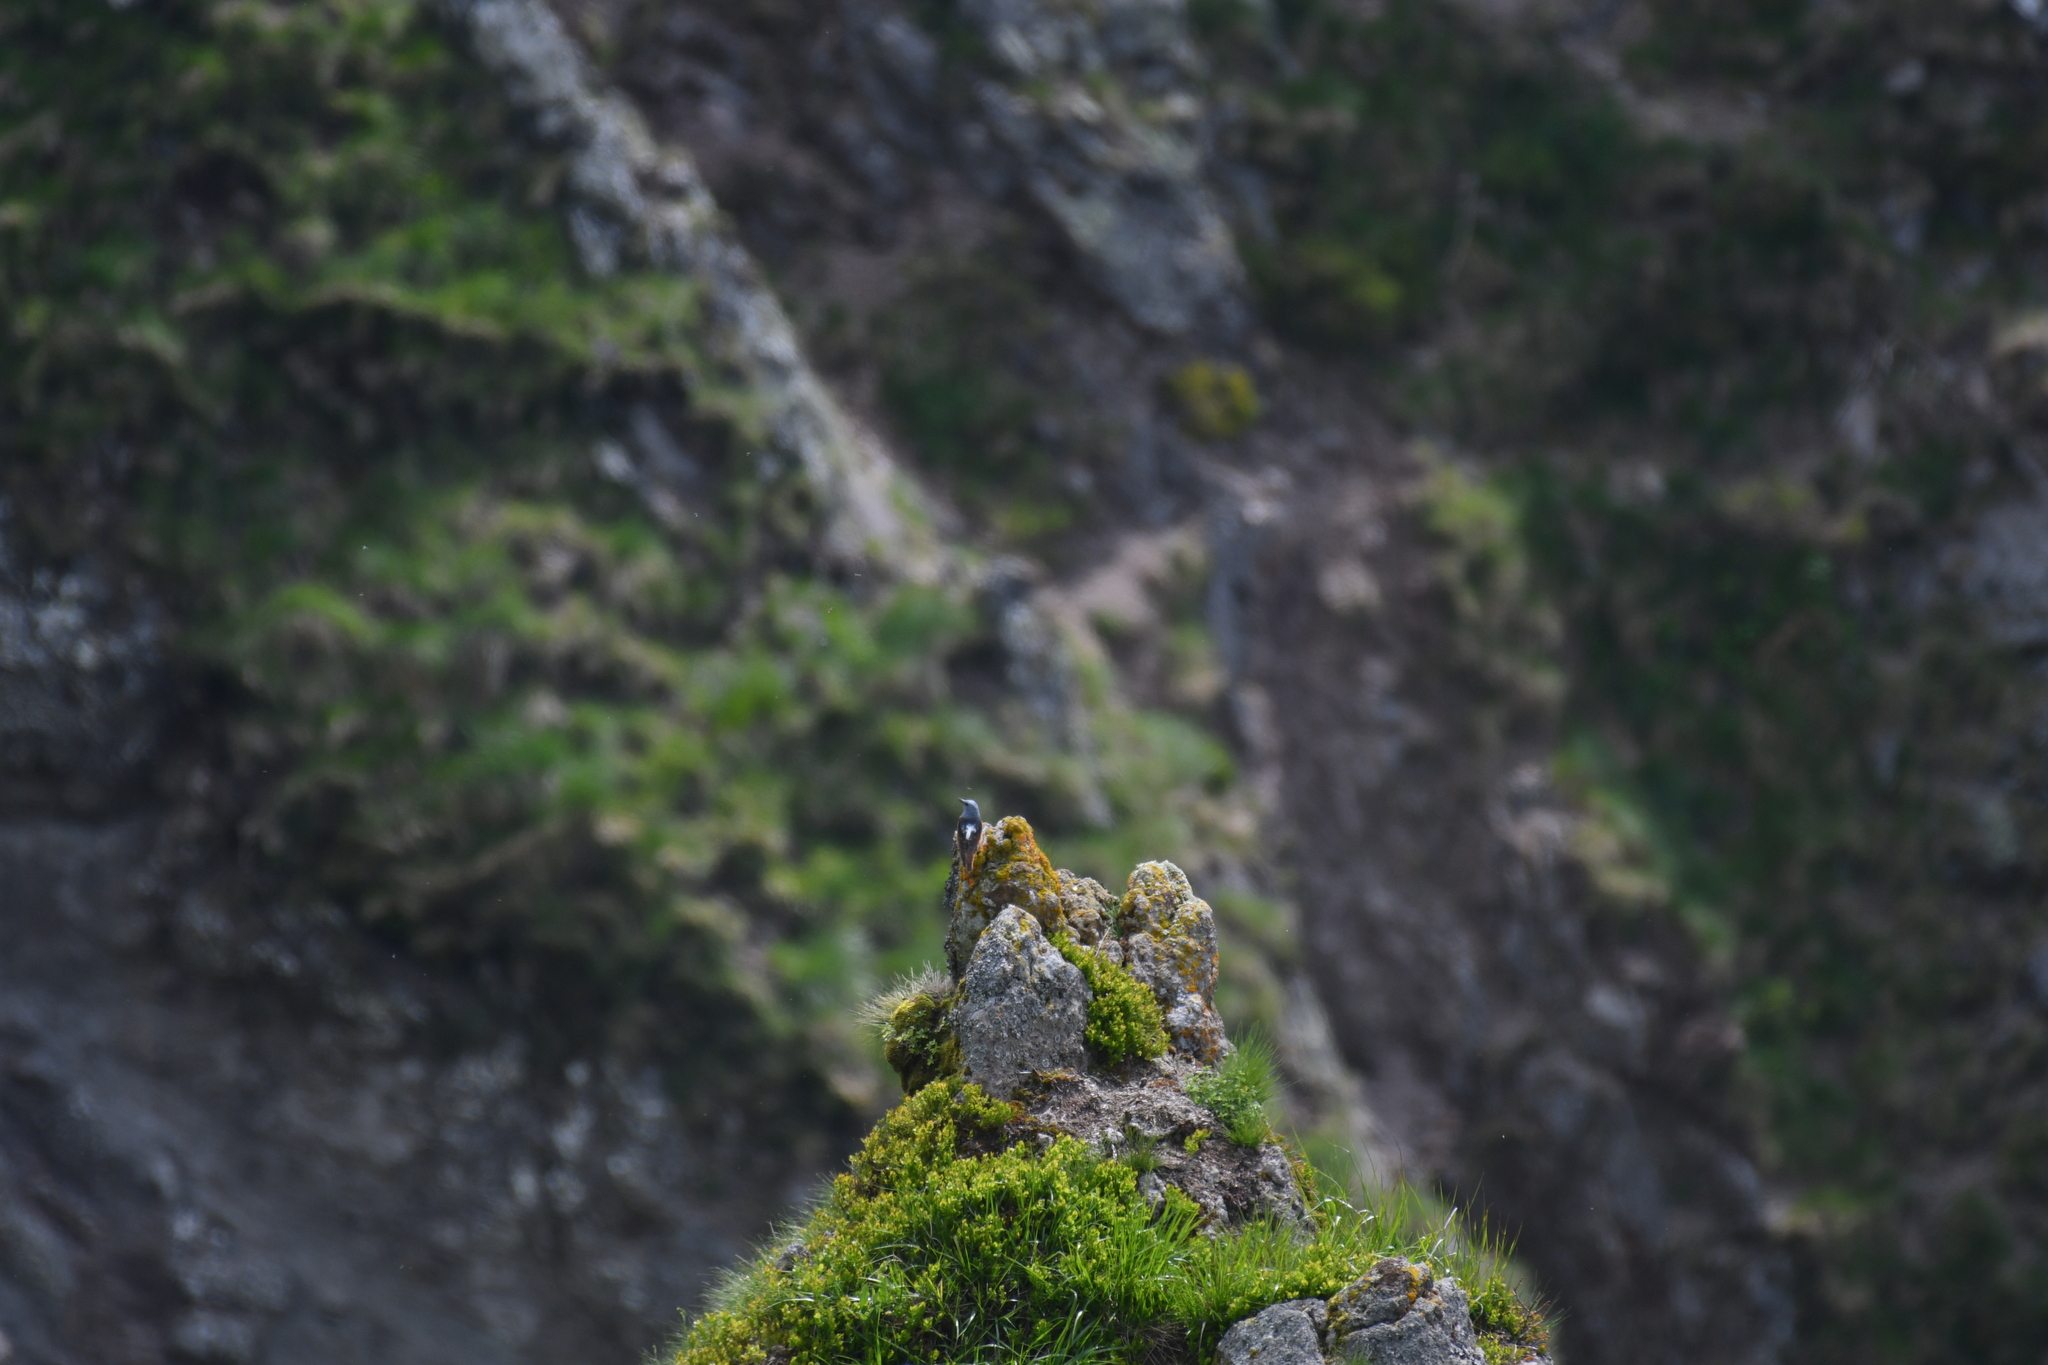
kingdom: Animalia
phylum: Chordata
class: Aves
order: Passeriformes
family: Muscicapidae
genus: Monticola
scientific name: Monticola saxatilis
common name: Rufous-tailed rock thrush
